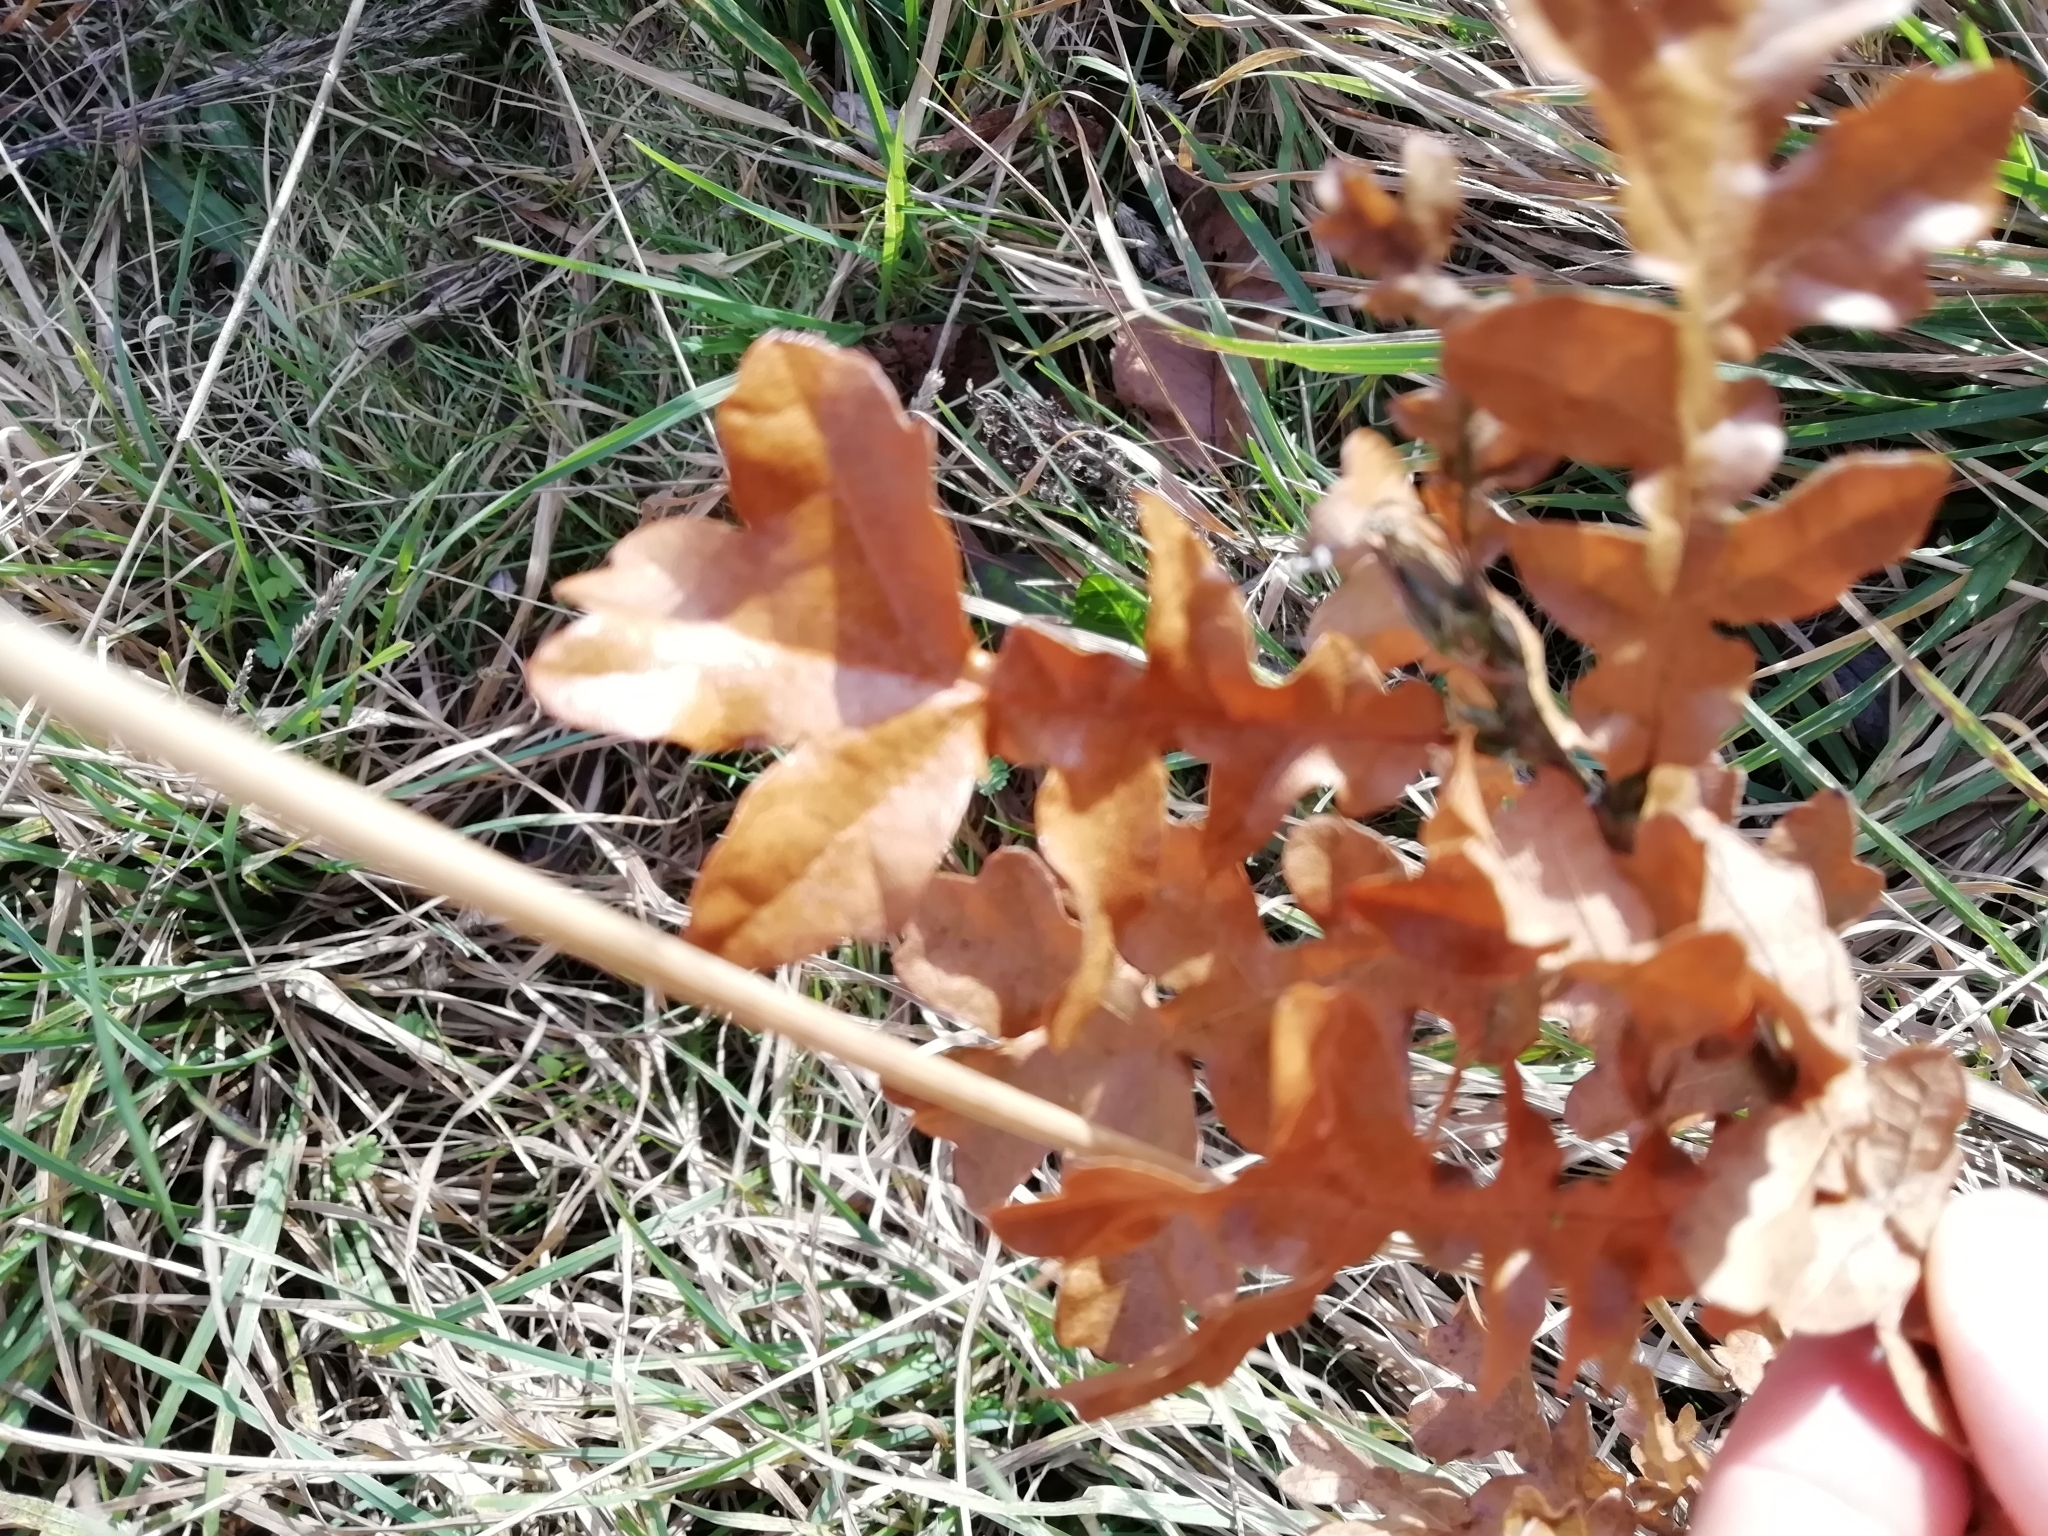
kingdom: Plantae
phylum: Tracheophyta
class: Magnoliopsida
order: Fagales
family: Fagaceae
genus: Quercus
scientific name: Quercus cerris
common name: Turkey oak
